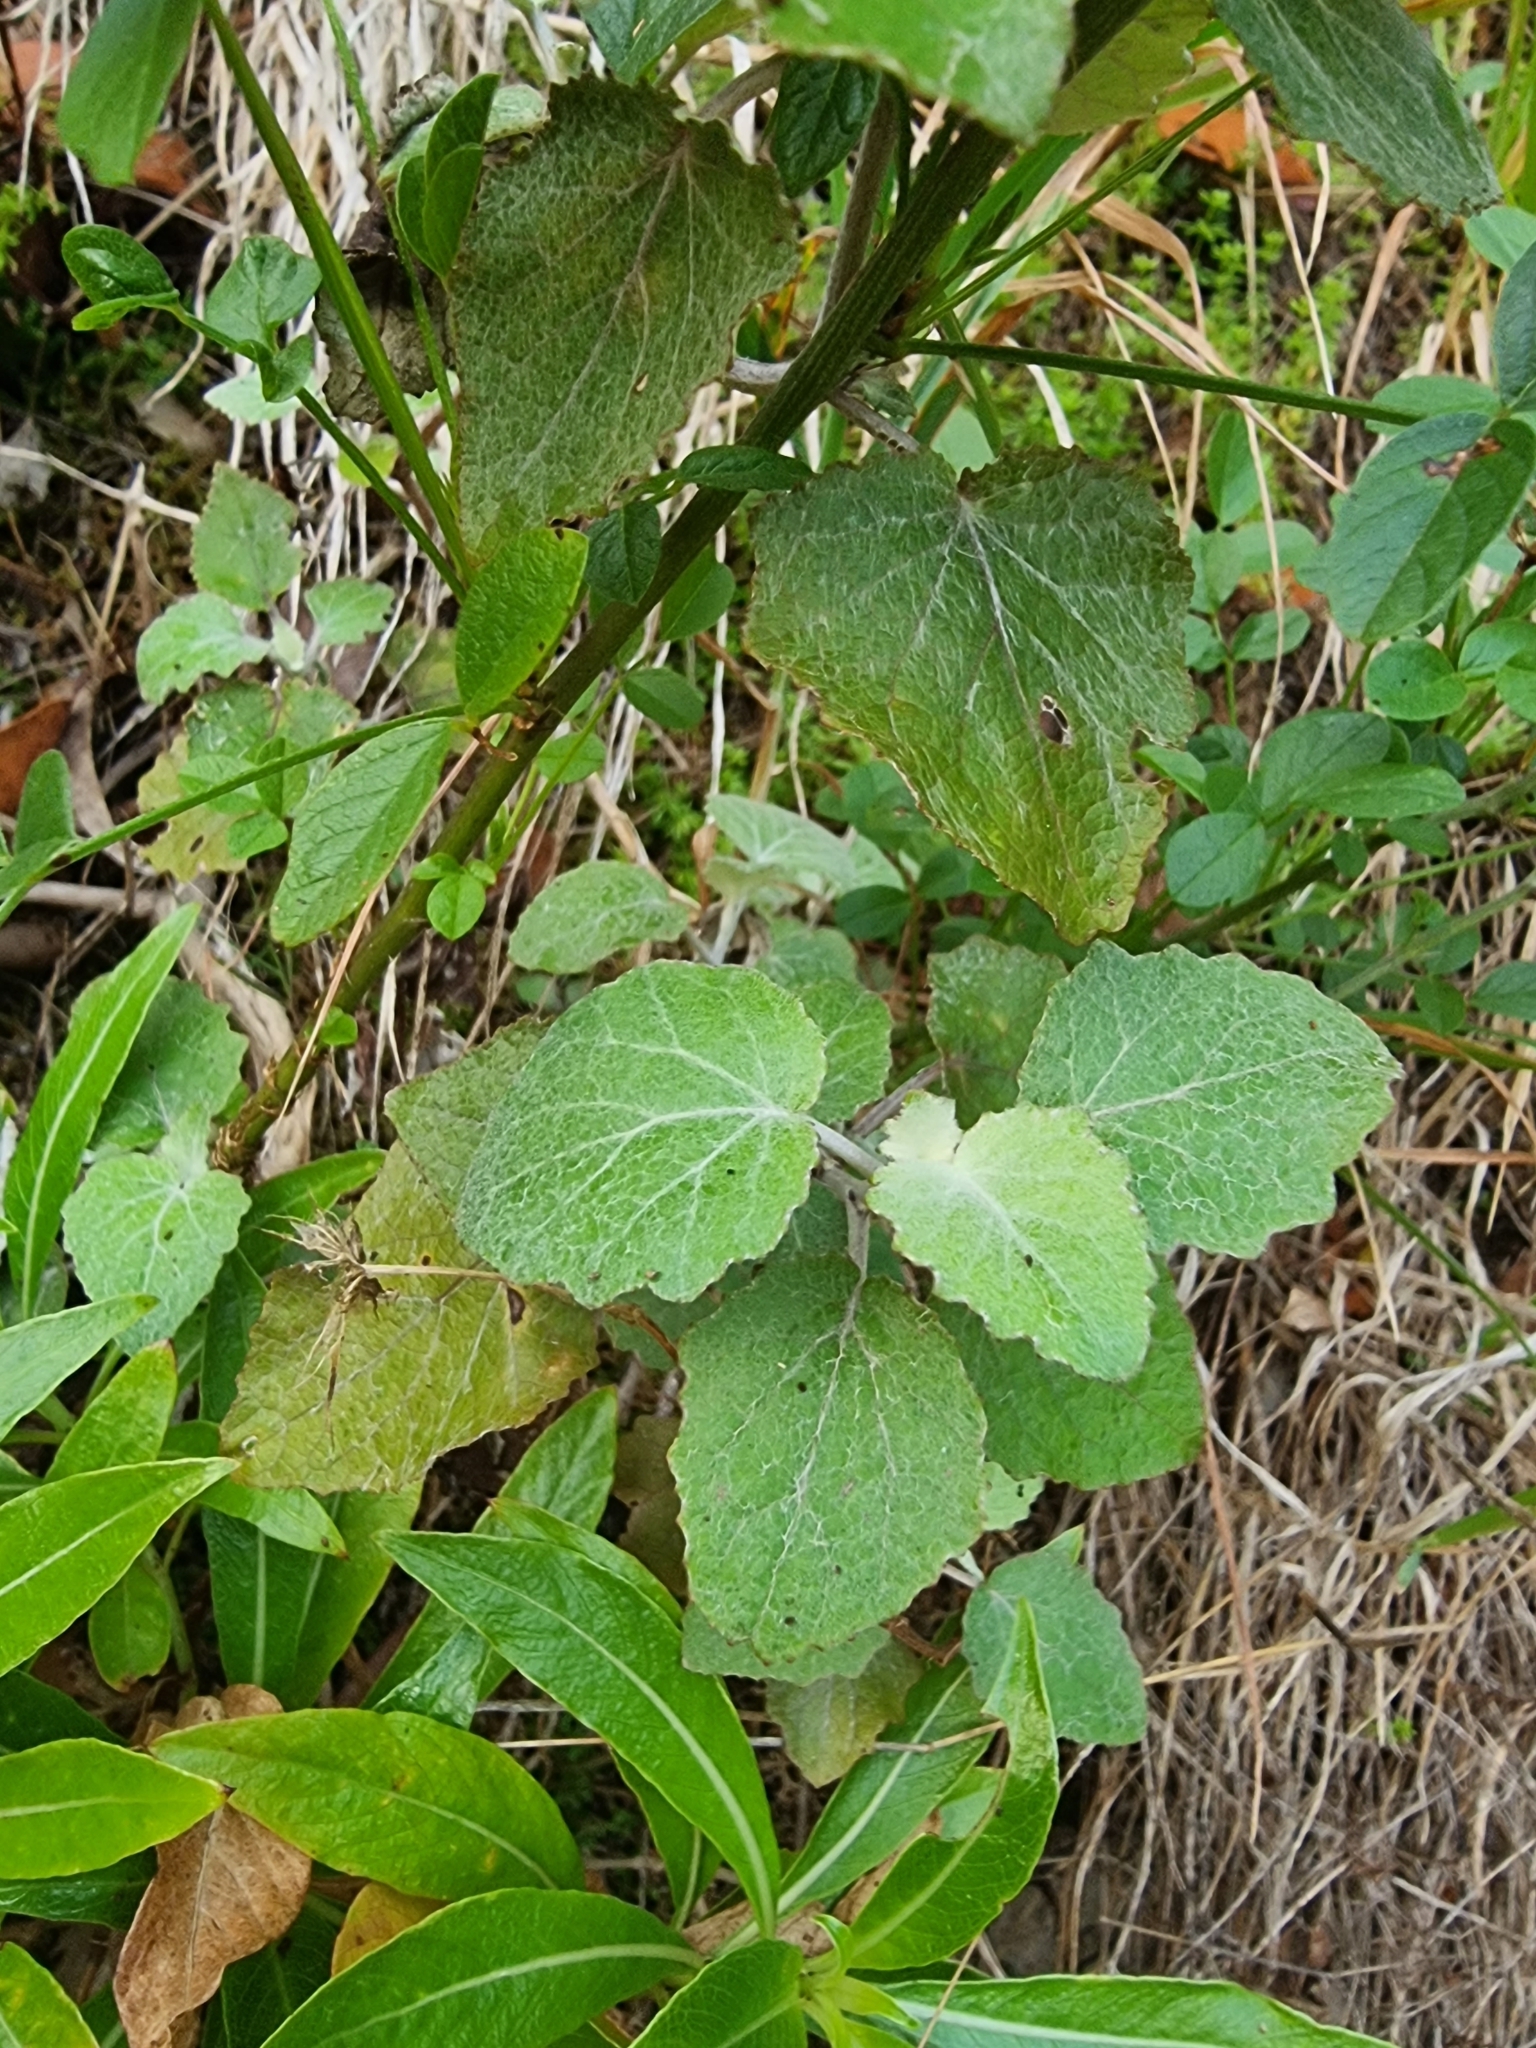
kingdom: Plantae
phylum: Tracheophyta
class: Magnoliopsida
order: Asterales
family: Asteraceae
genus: Pericallis
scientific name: Pericallis aurita
